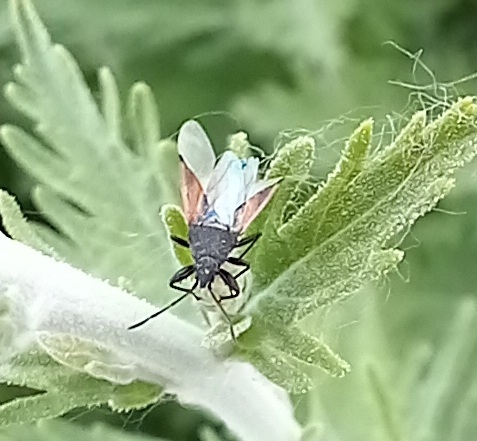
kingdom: Animalia
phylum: Arthropoda
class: Insecta
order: Hemiptera
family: Oxycarenidae
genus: Oxycarenus
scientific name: Oxycarenus lavaterae
